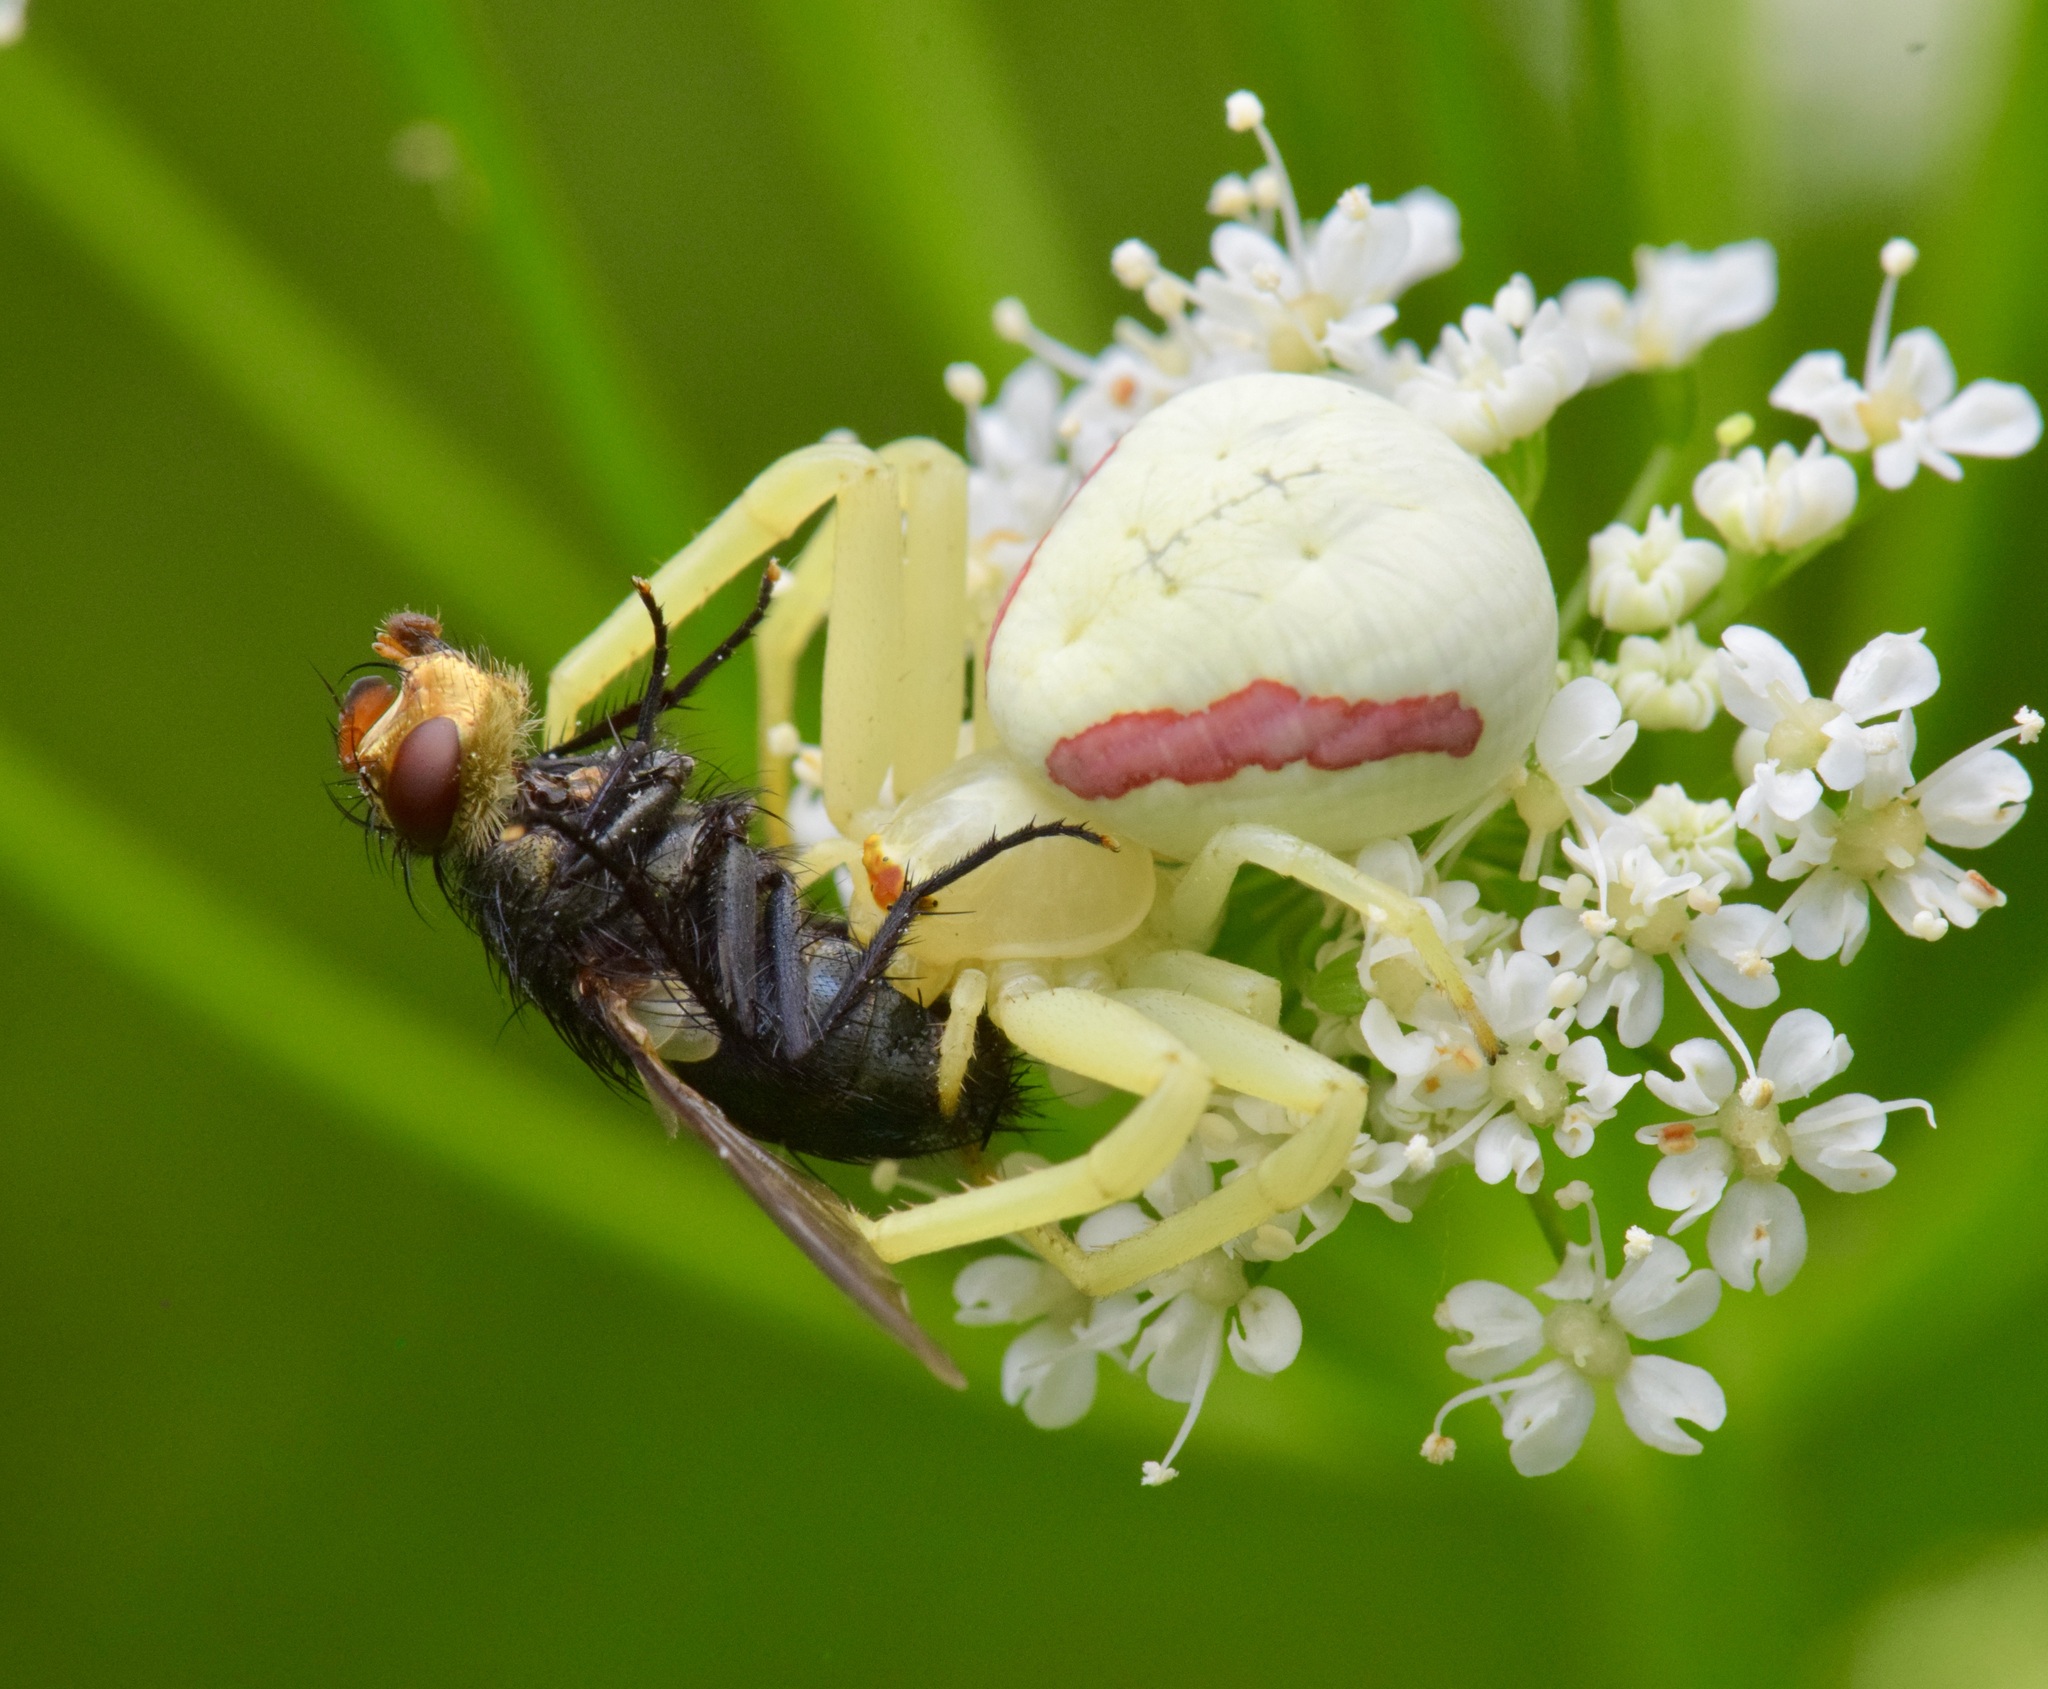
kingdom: Animalia
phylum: Arthropoda
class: Arachnida
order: Araneae
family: Thomisidae
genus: Misumena
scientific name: Misumena vatia
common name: Goldenrod crab spider
